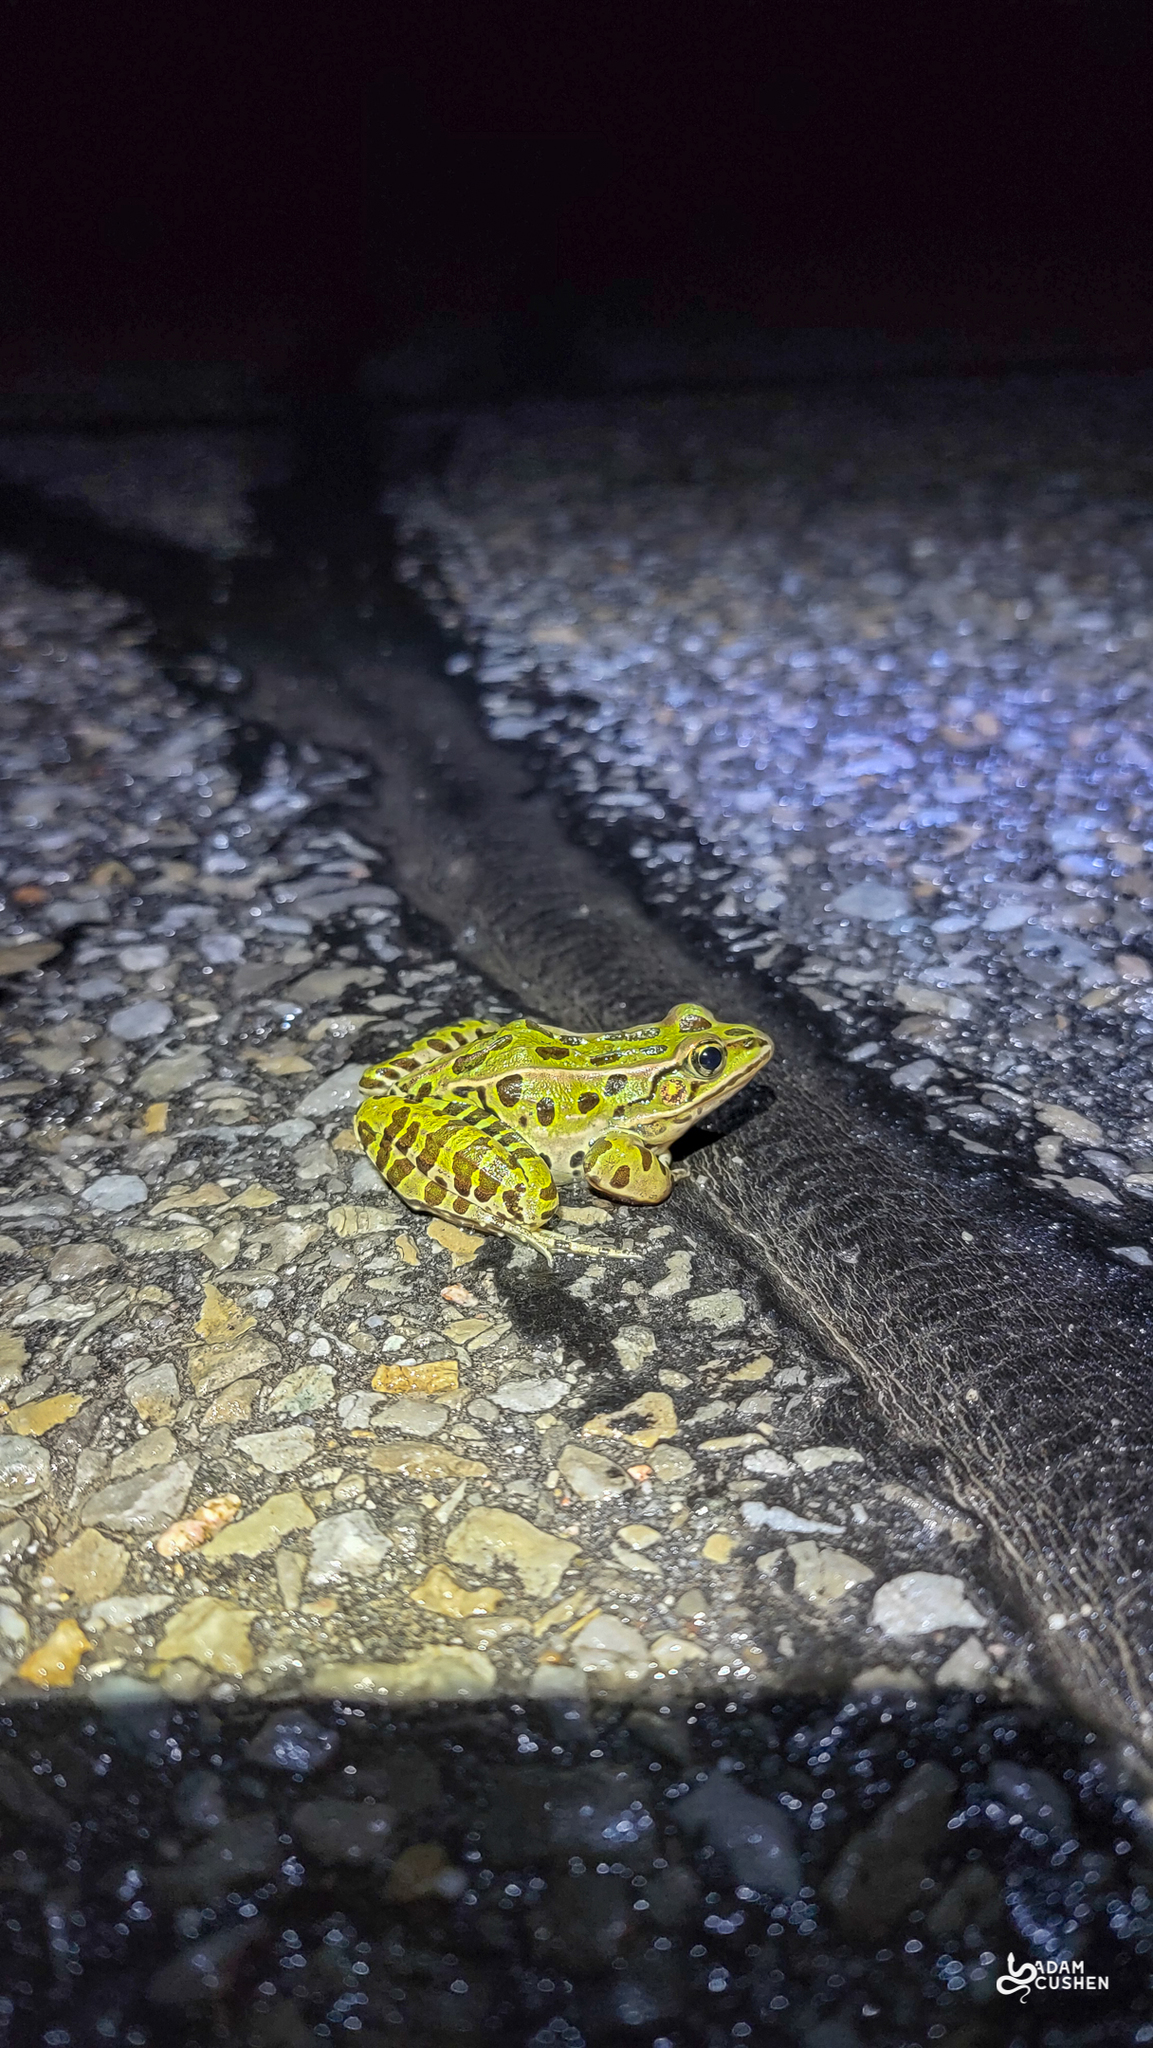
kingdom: Animalia
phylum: Chordata
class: Amphibia
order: Anura
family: Ranidae
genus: Lithobates
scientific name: Lithobates pipiens
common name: Northern leopard frog
